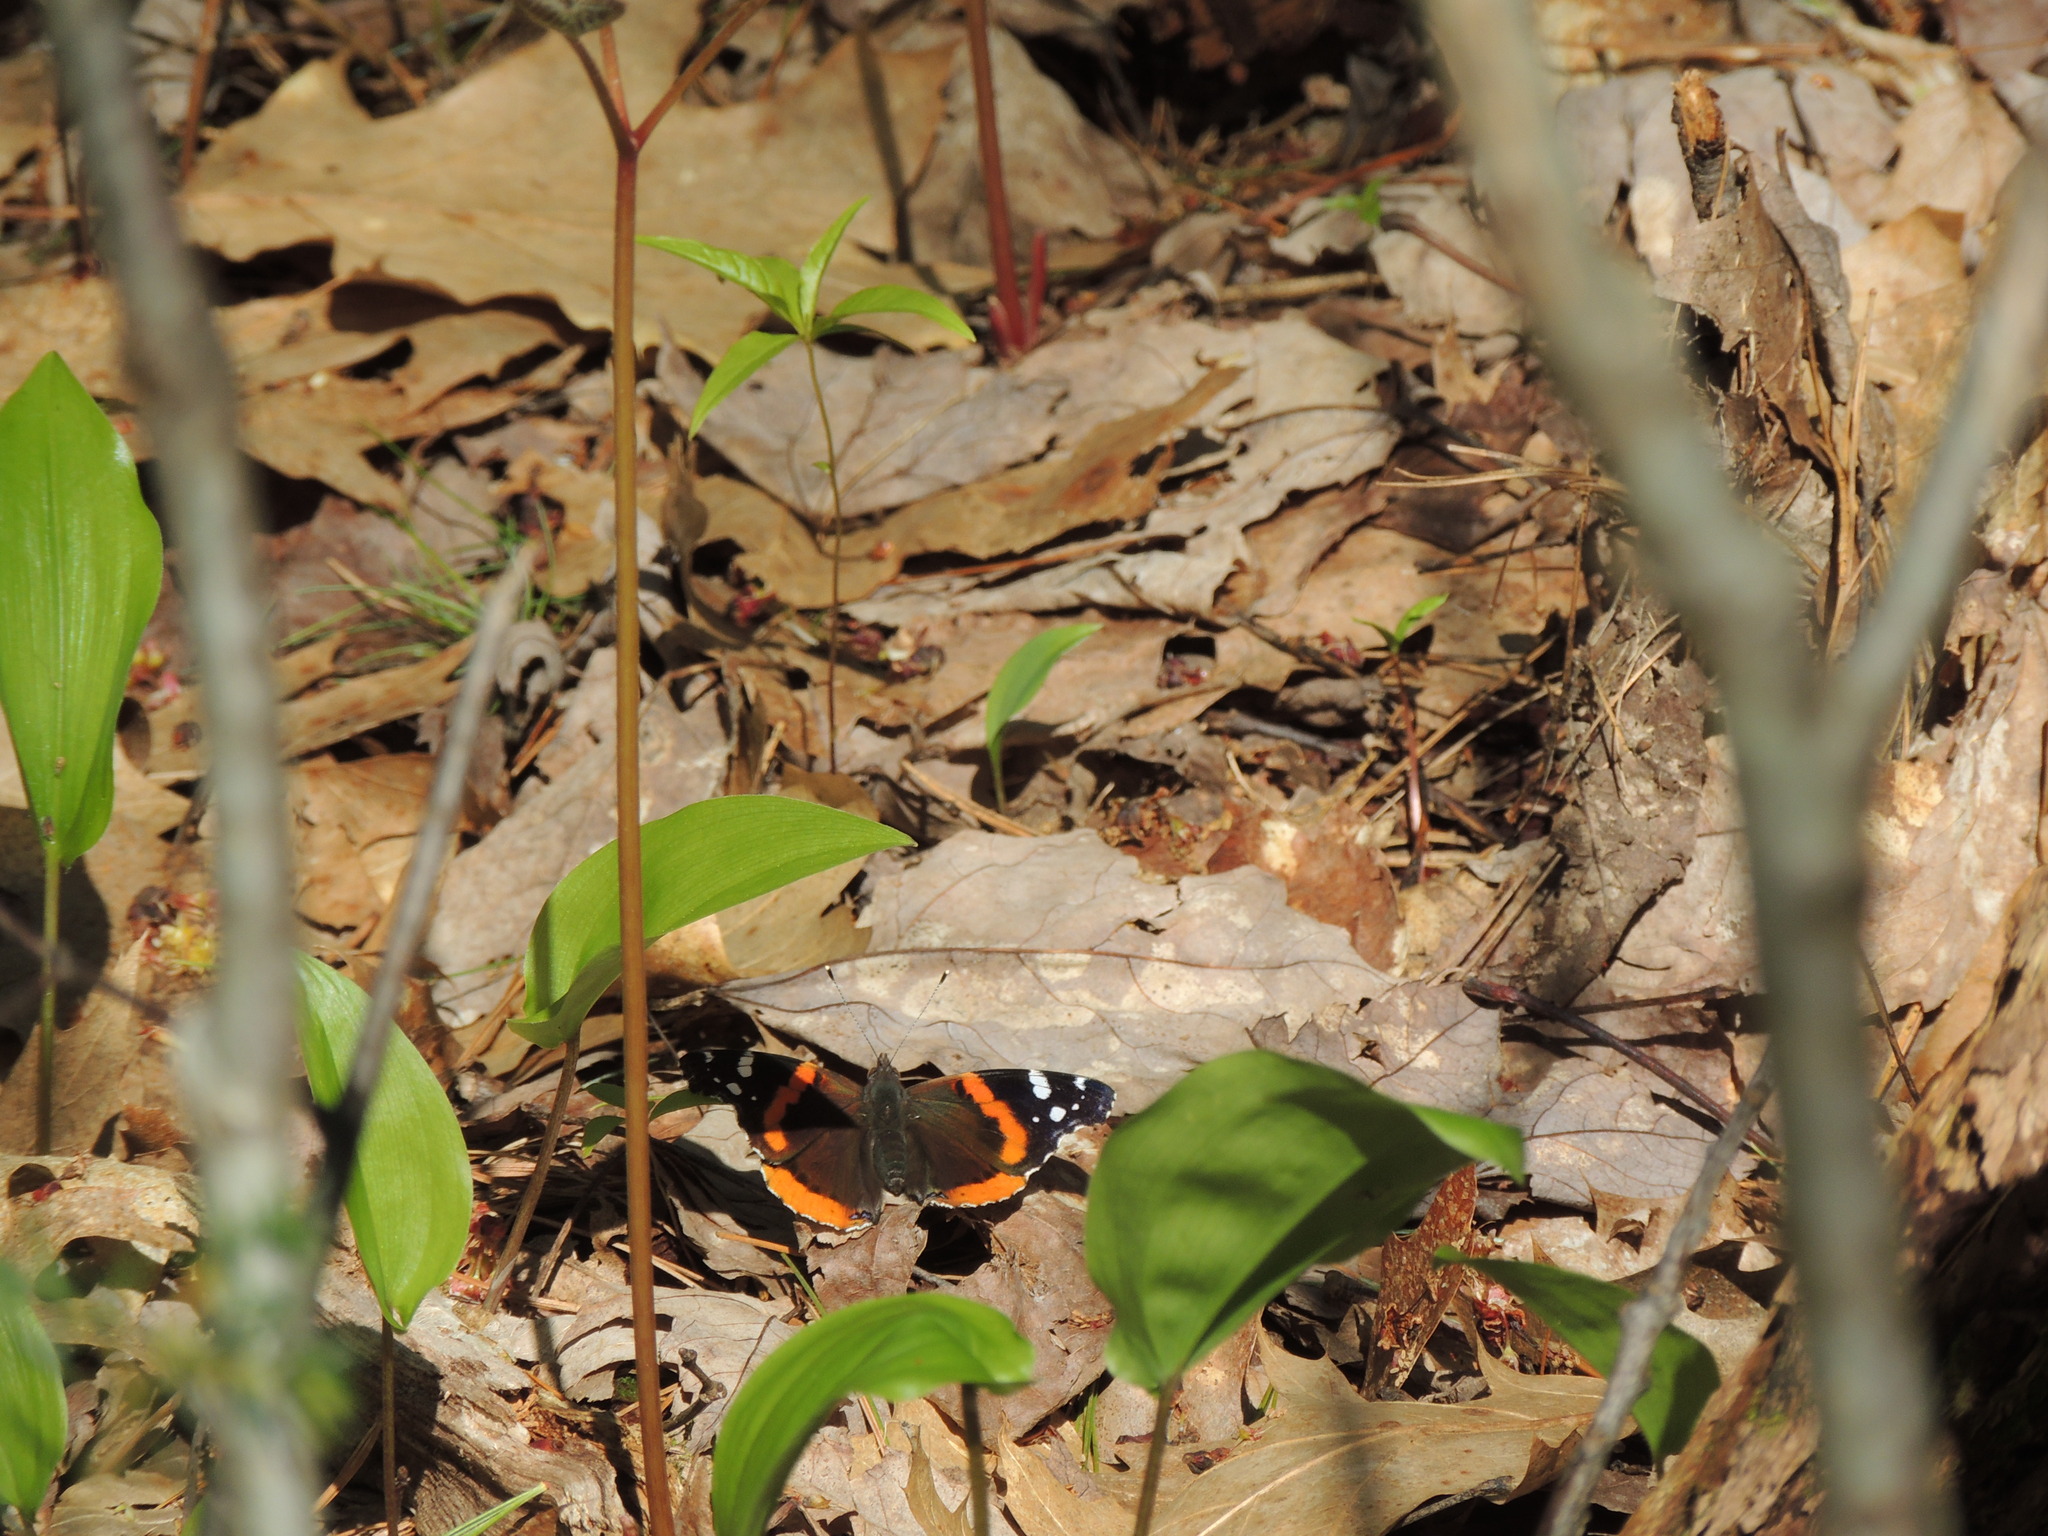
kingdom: Animalia
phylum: Arthropoda
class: Insecta
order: Lepidoptera
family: Nymphalidae
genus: Vanessa
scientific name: Vanessa atalanta
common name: Red admiral
